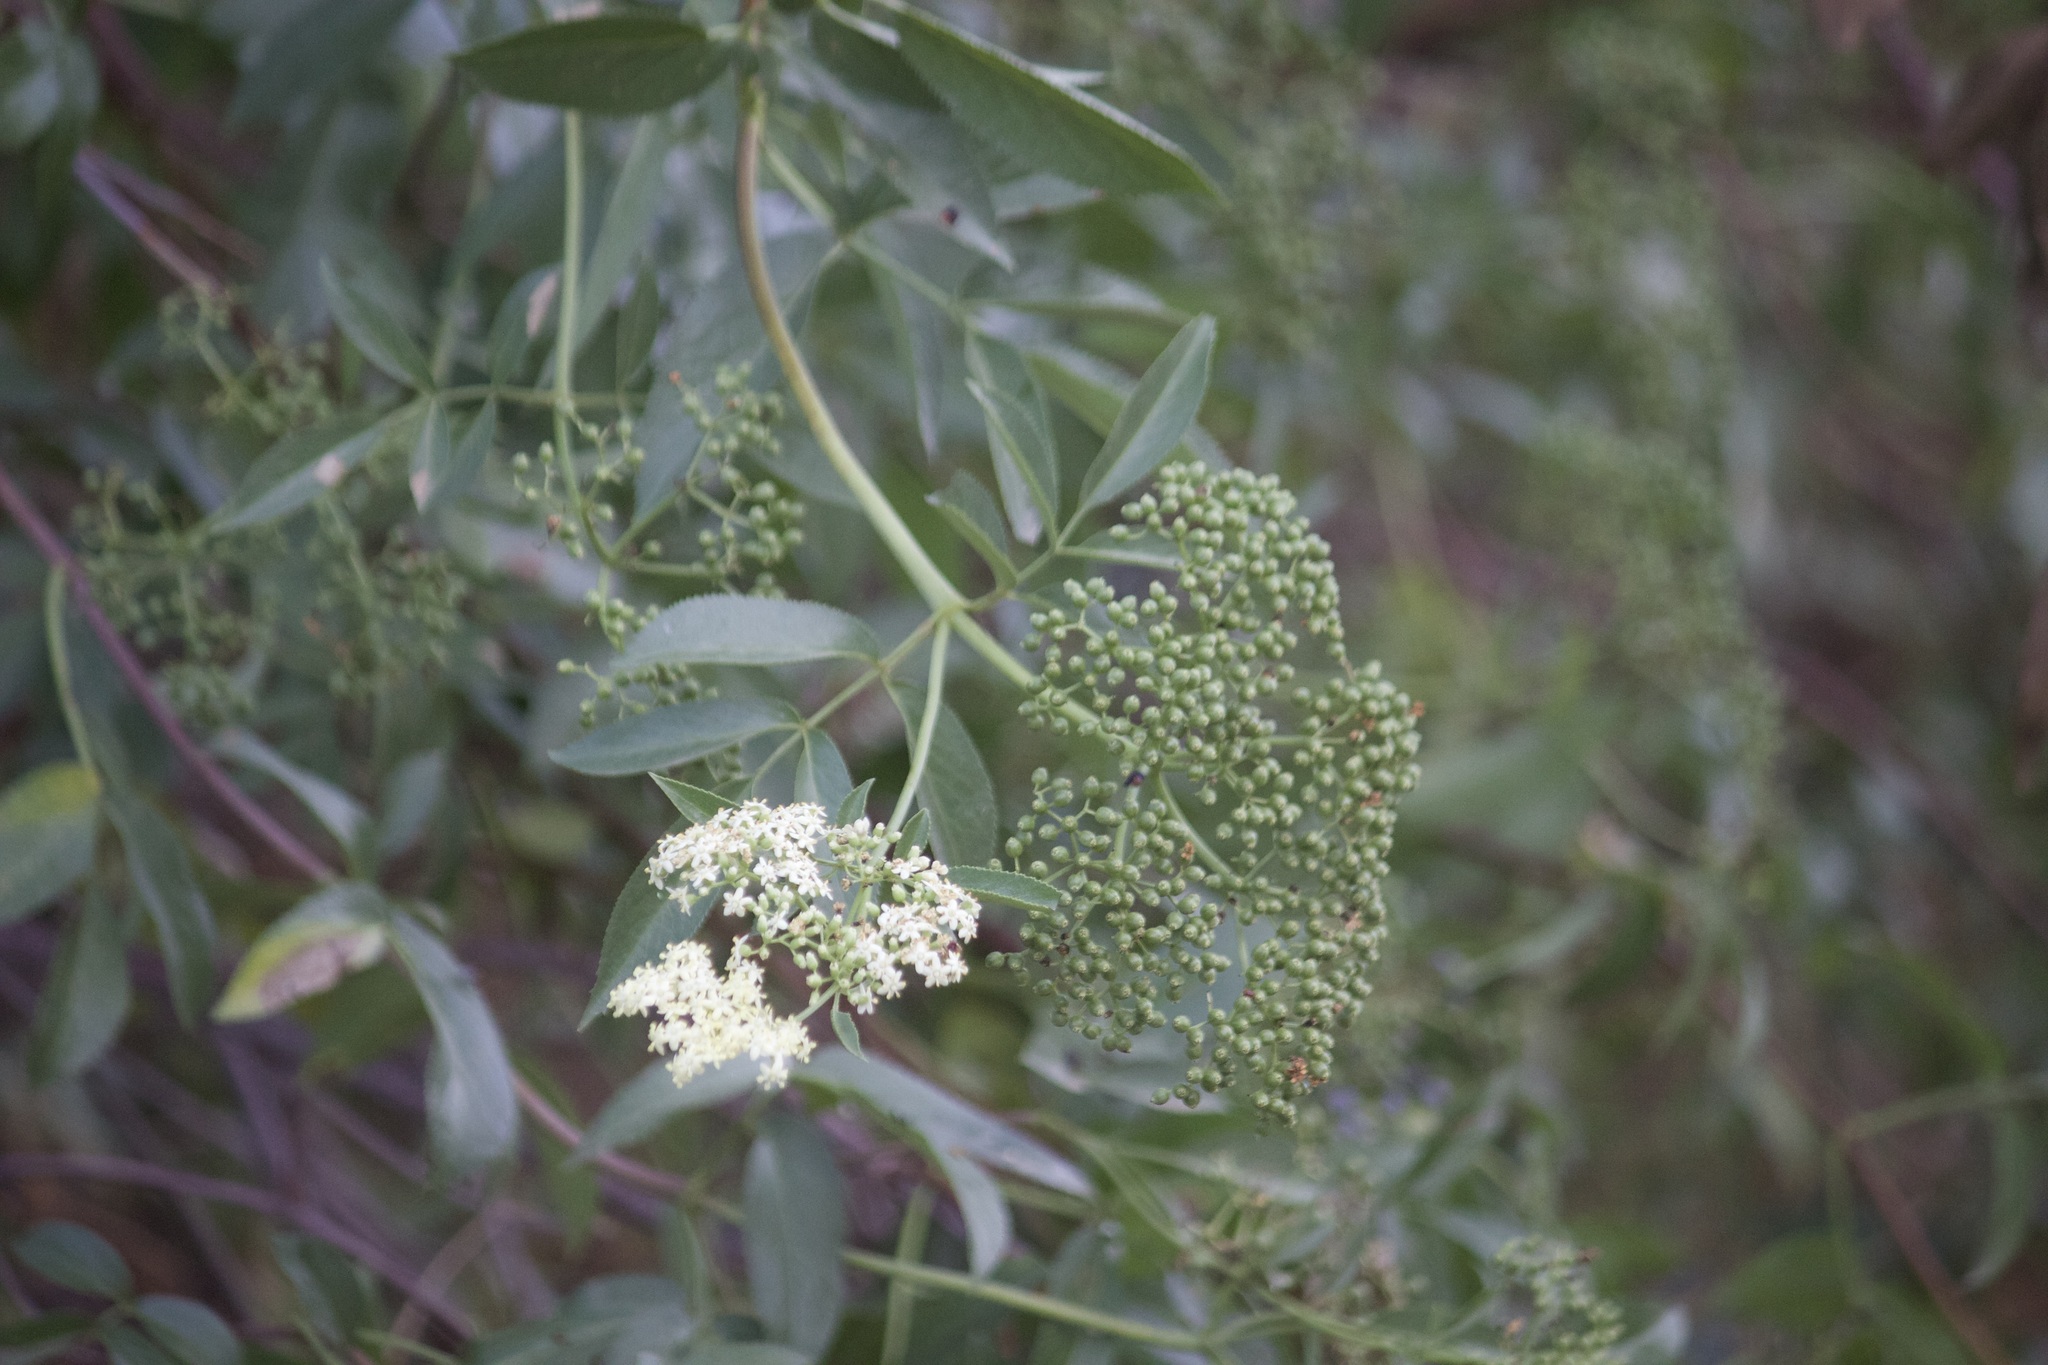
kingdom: Plantae
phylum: Tracheophyta
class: Magnoliopsida
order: Dipsacales
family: Viburnaceae
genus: Sambucus
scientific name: Sambucus cerulea
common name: Blue elder
